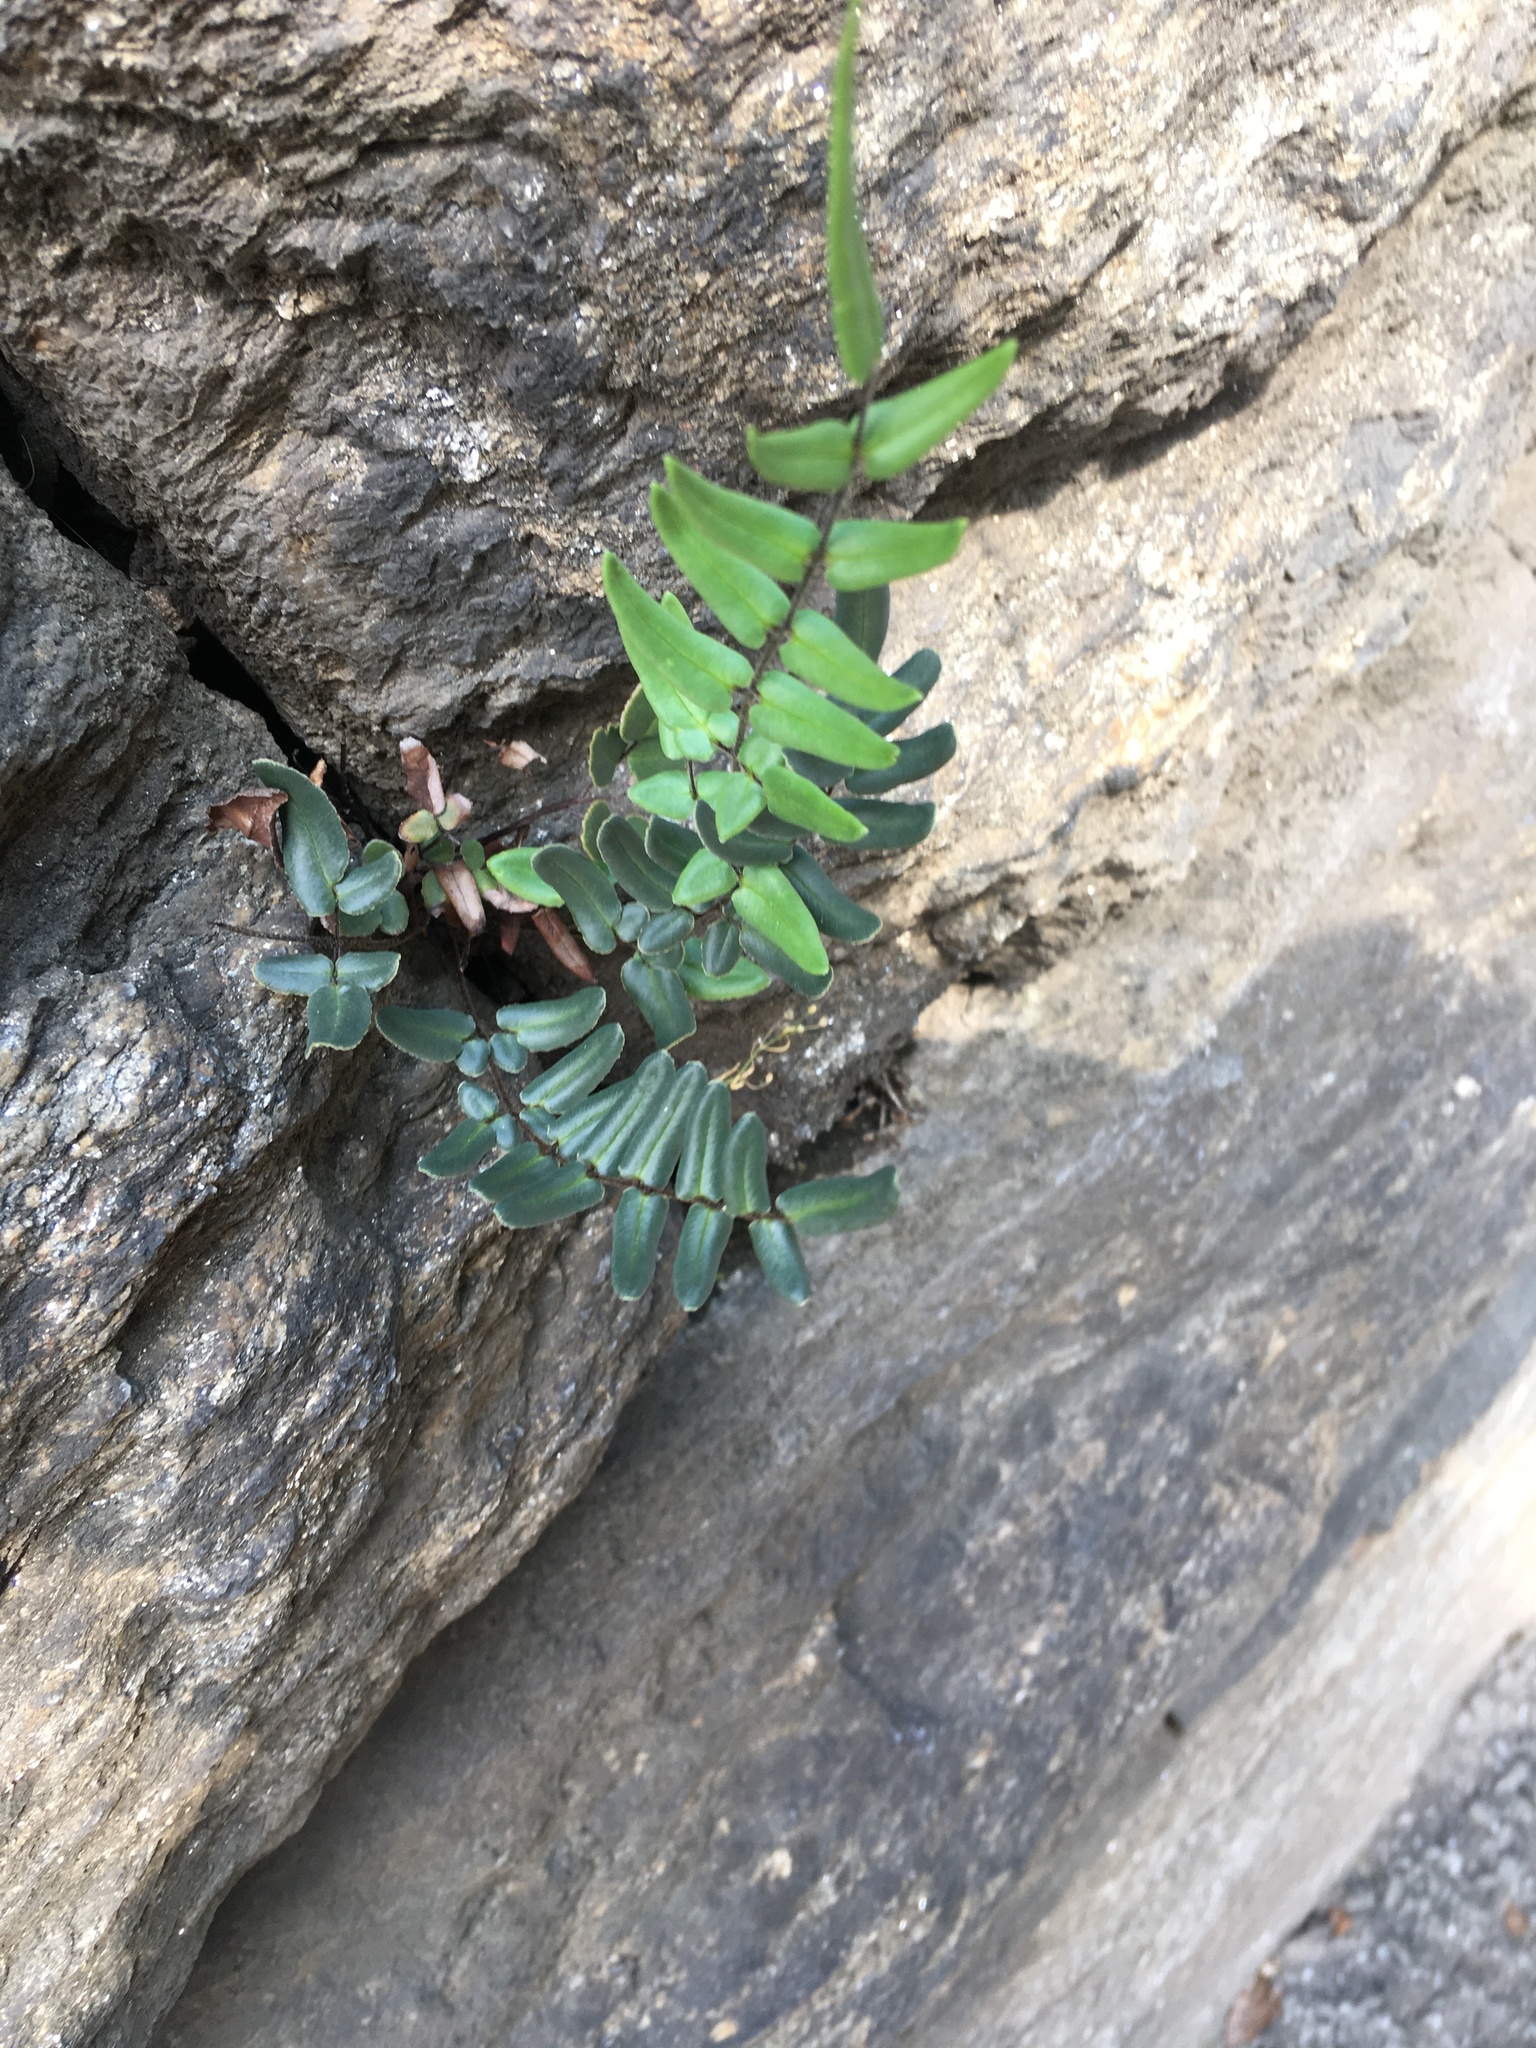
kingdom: Plantae
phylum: Tracheophyta
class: Polypodiopsida
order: Polypodiales
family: Pteridaceae
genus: Pellaea
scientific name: Pellaea atropurpurea
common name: Hairy cliffbrake
